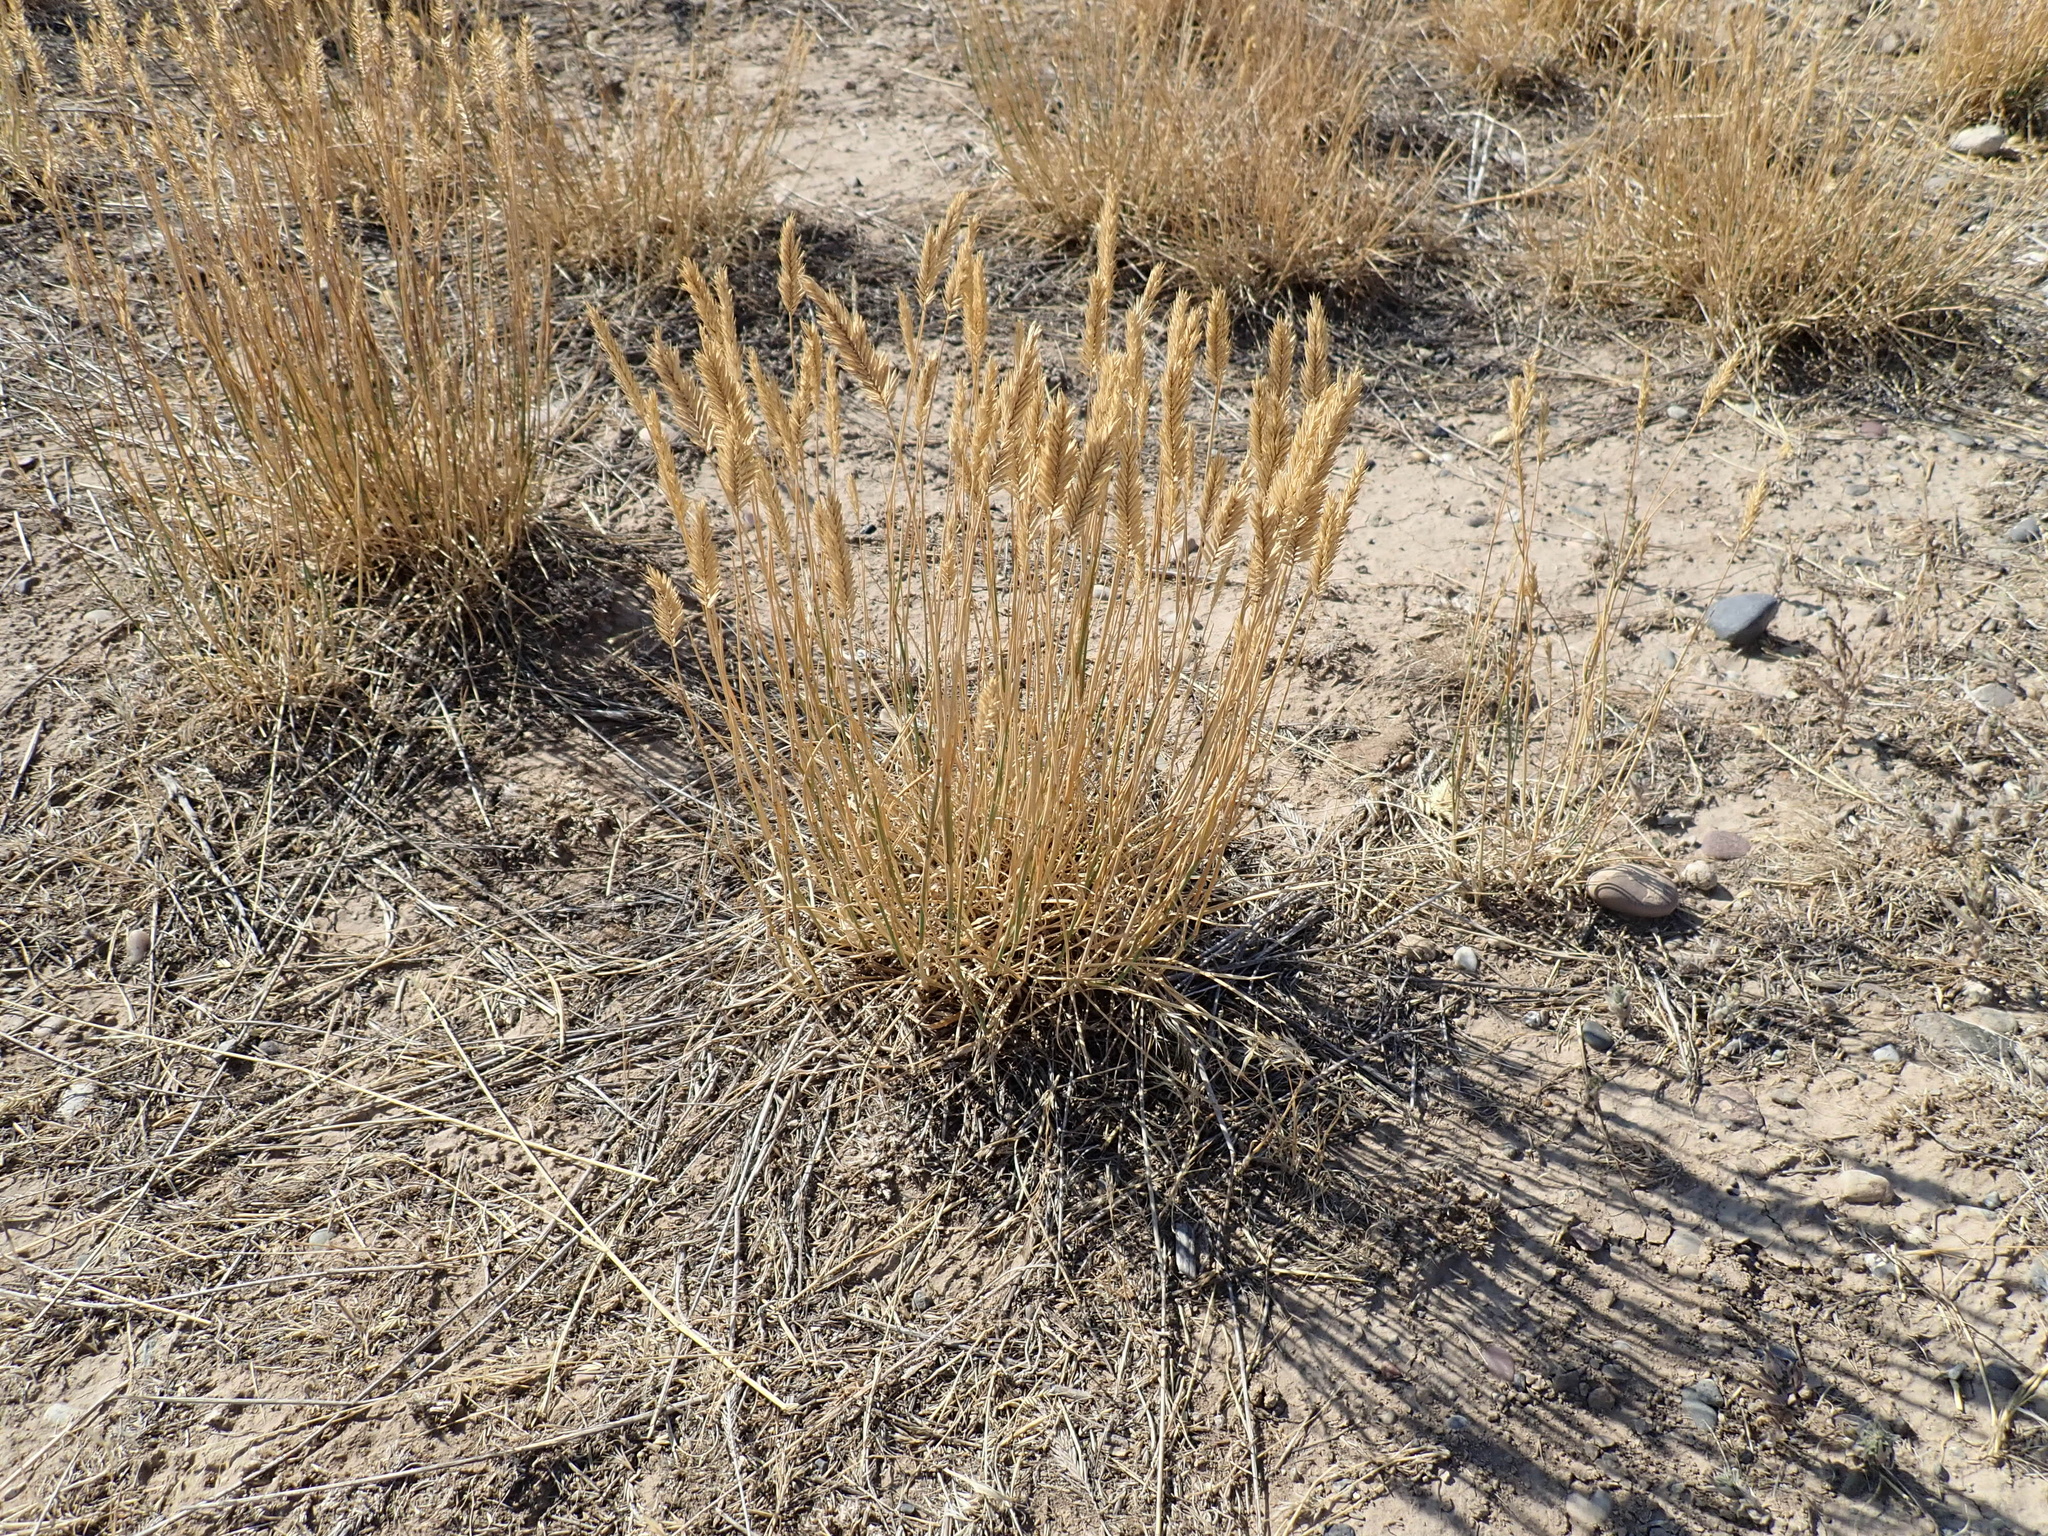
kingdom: Plantae
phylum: Tracheophyta
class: Liliopsida
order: Poales
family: Poaceae
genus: Agropyron
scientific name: Agropyron cristatum
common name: Crested wheatgrass
